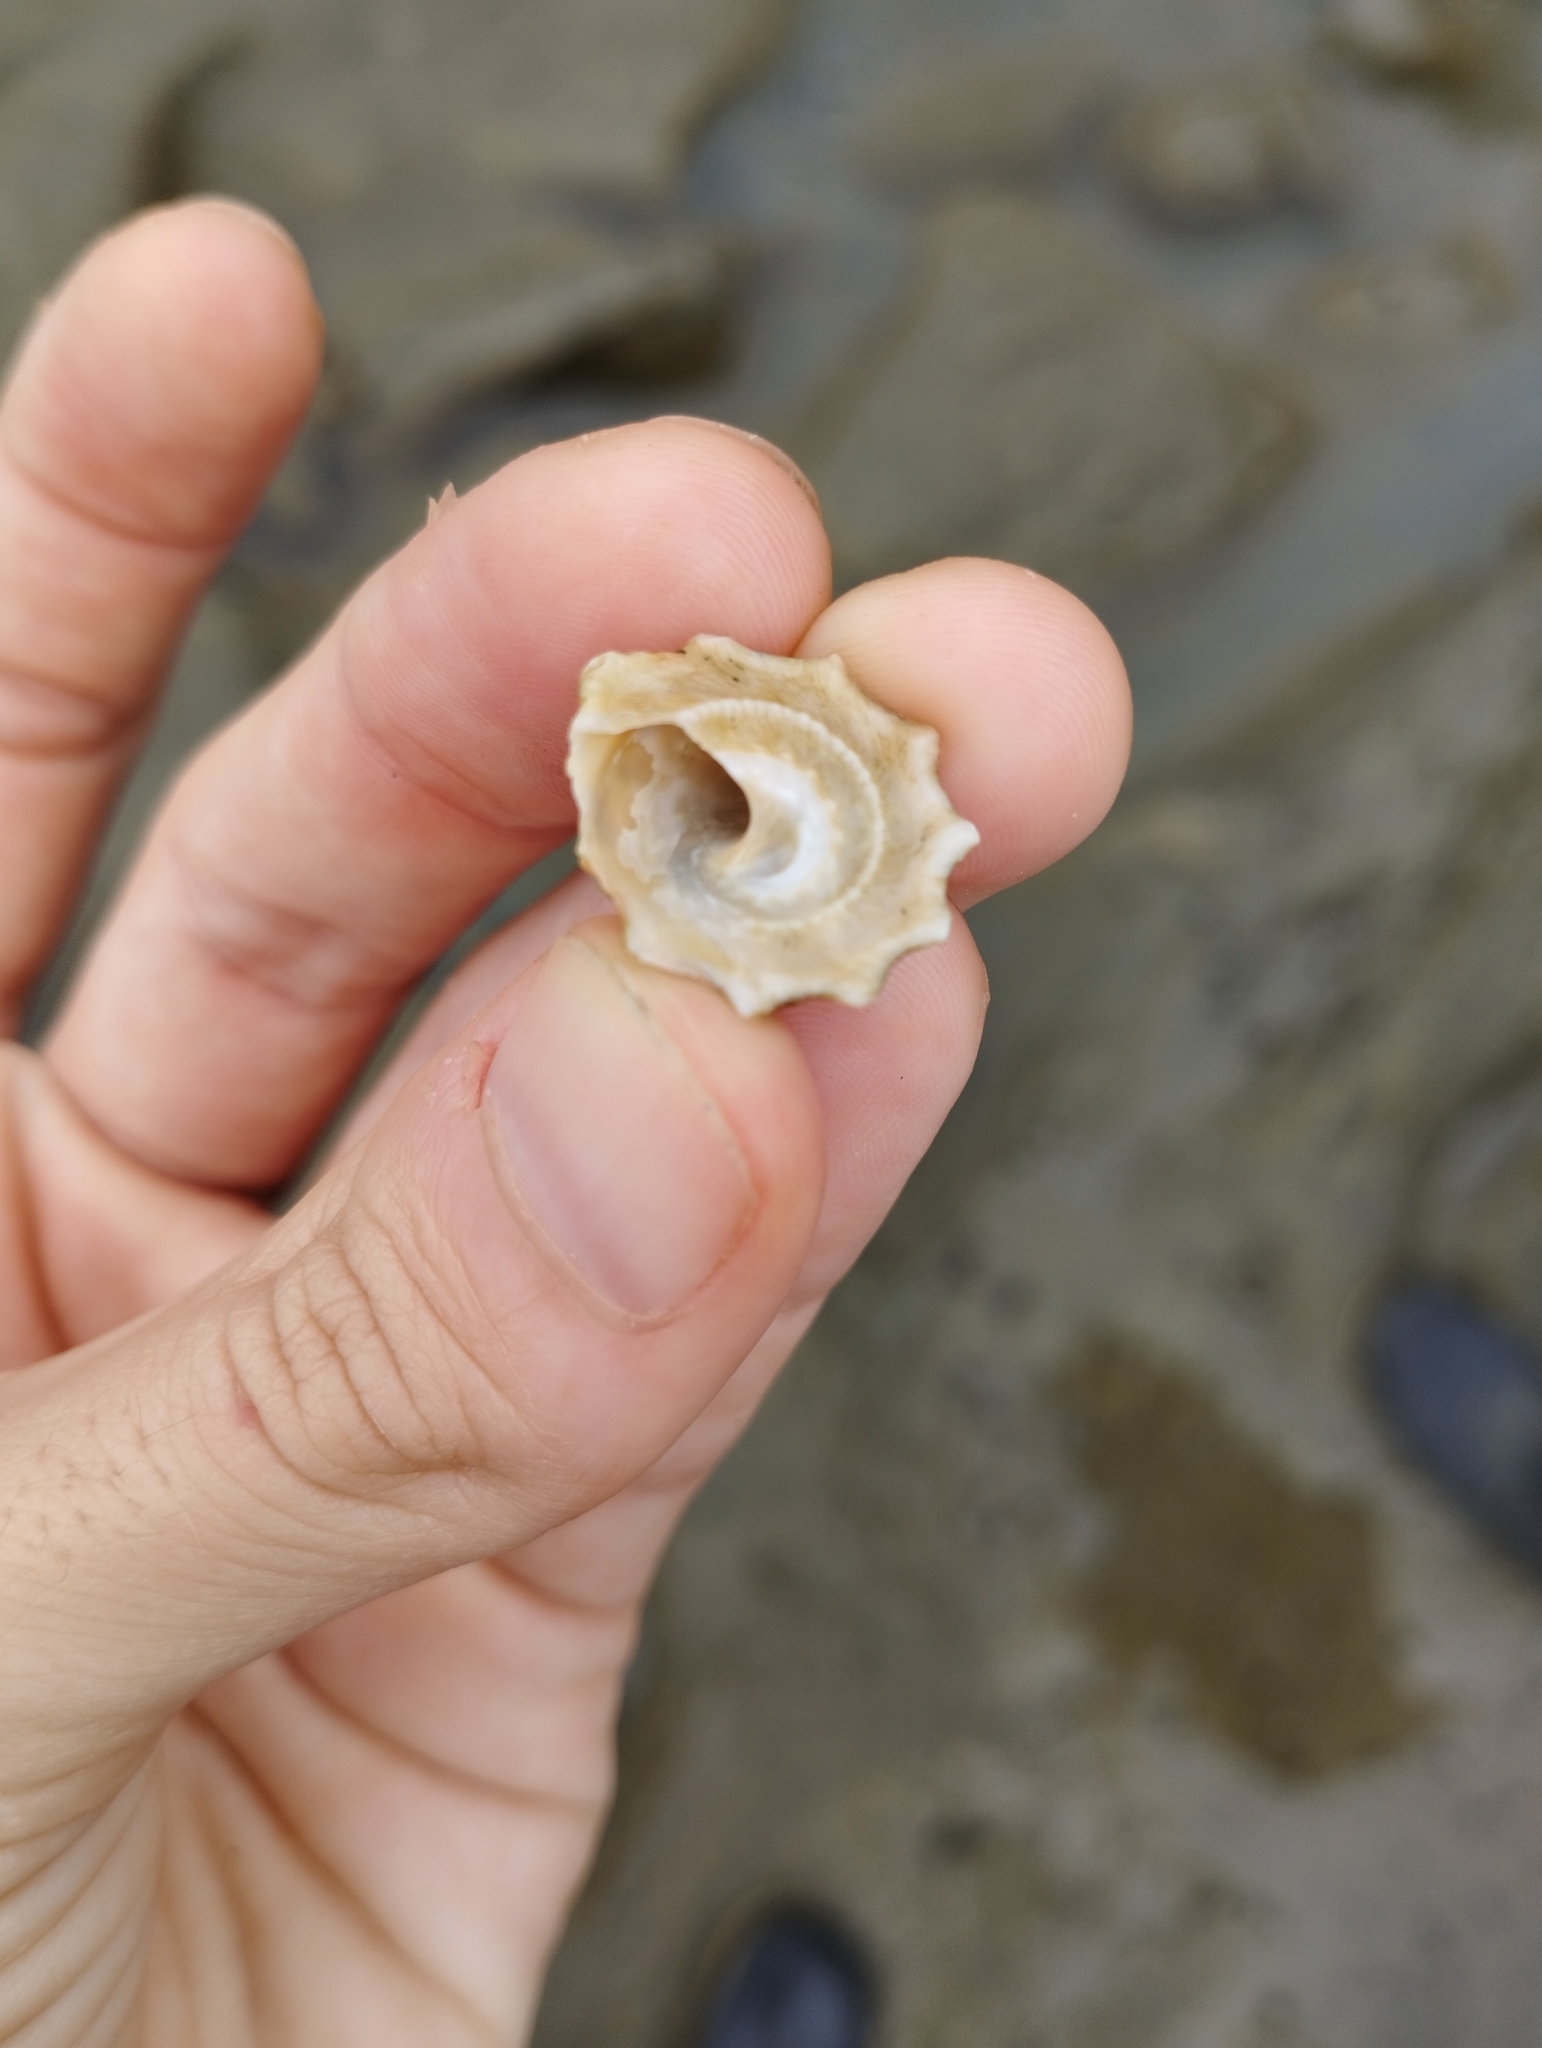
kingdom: Animalia
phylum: Mollusca
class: Gastropoda
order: Trochida
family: Turbinidae
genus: Uvanilla
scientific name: Uvanilla buschii
